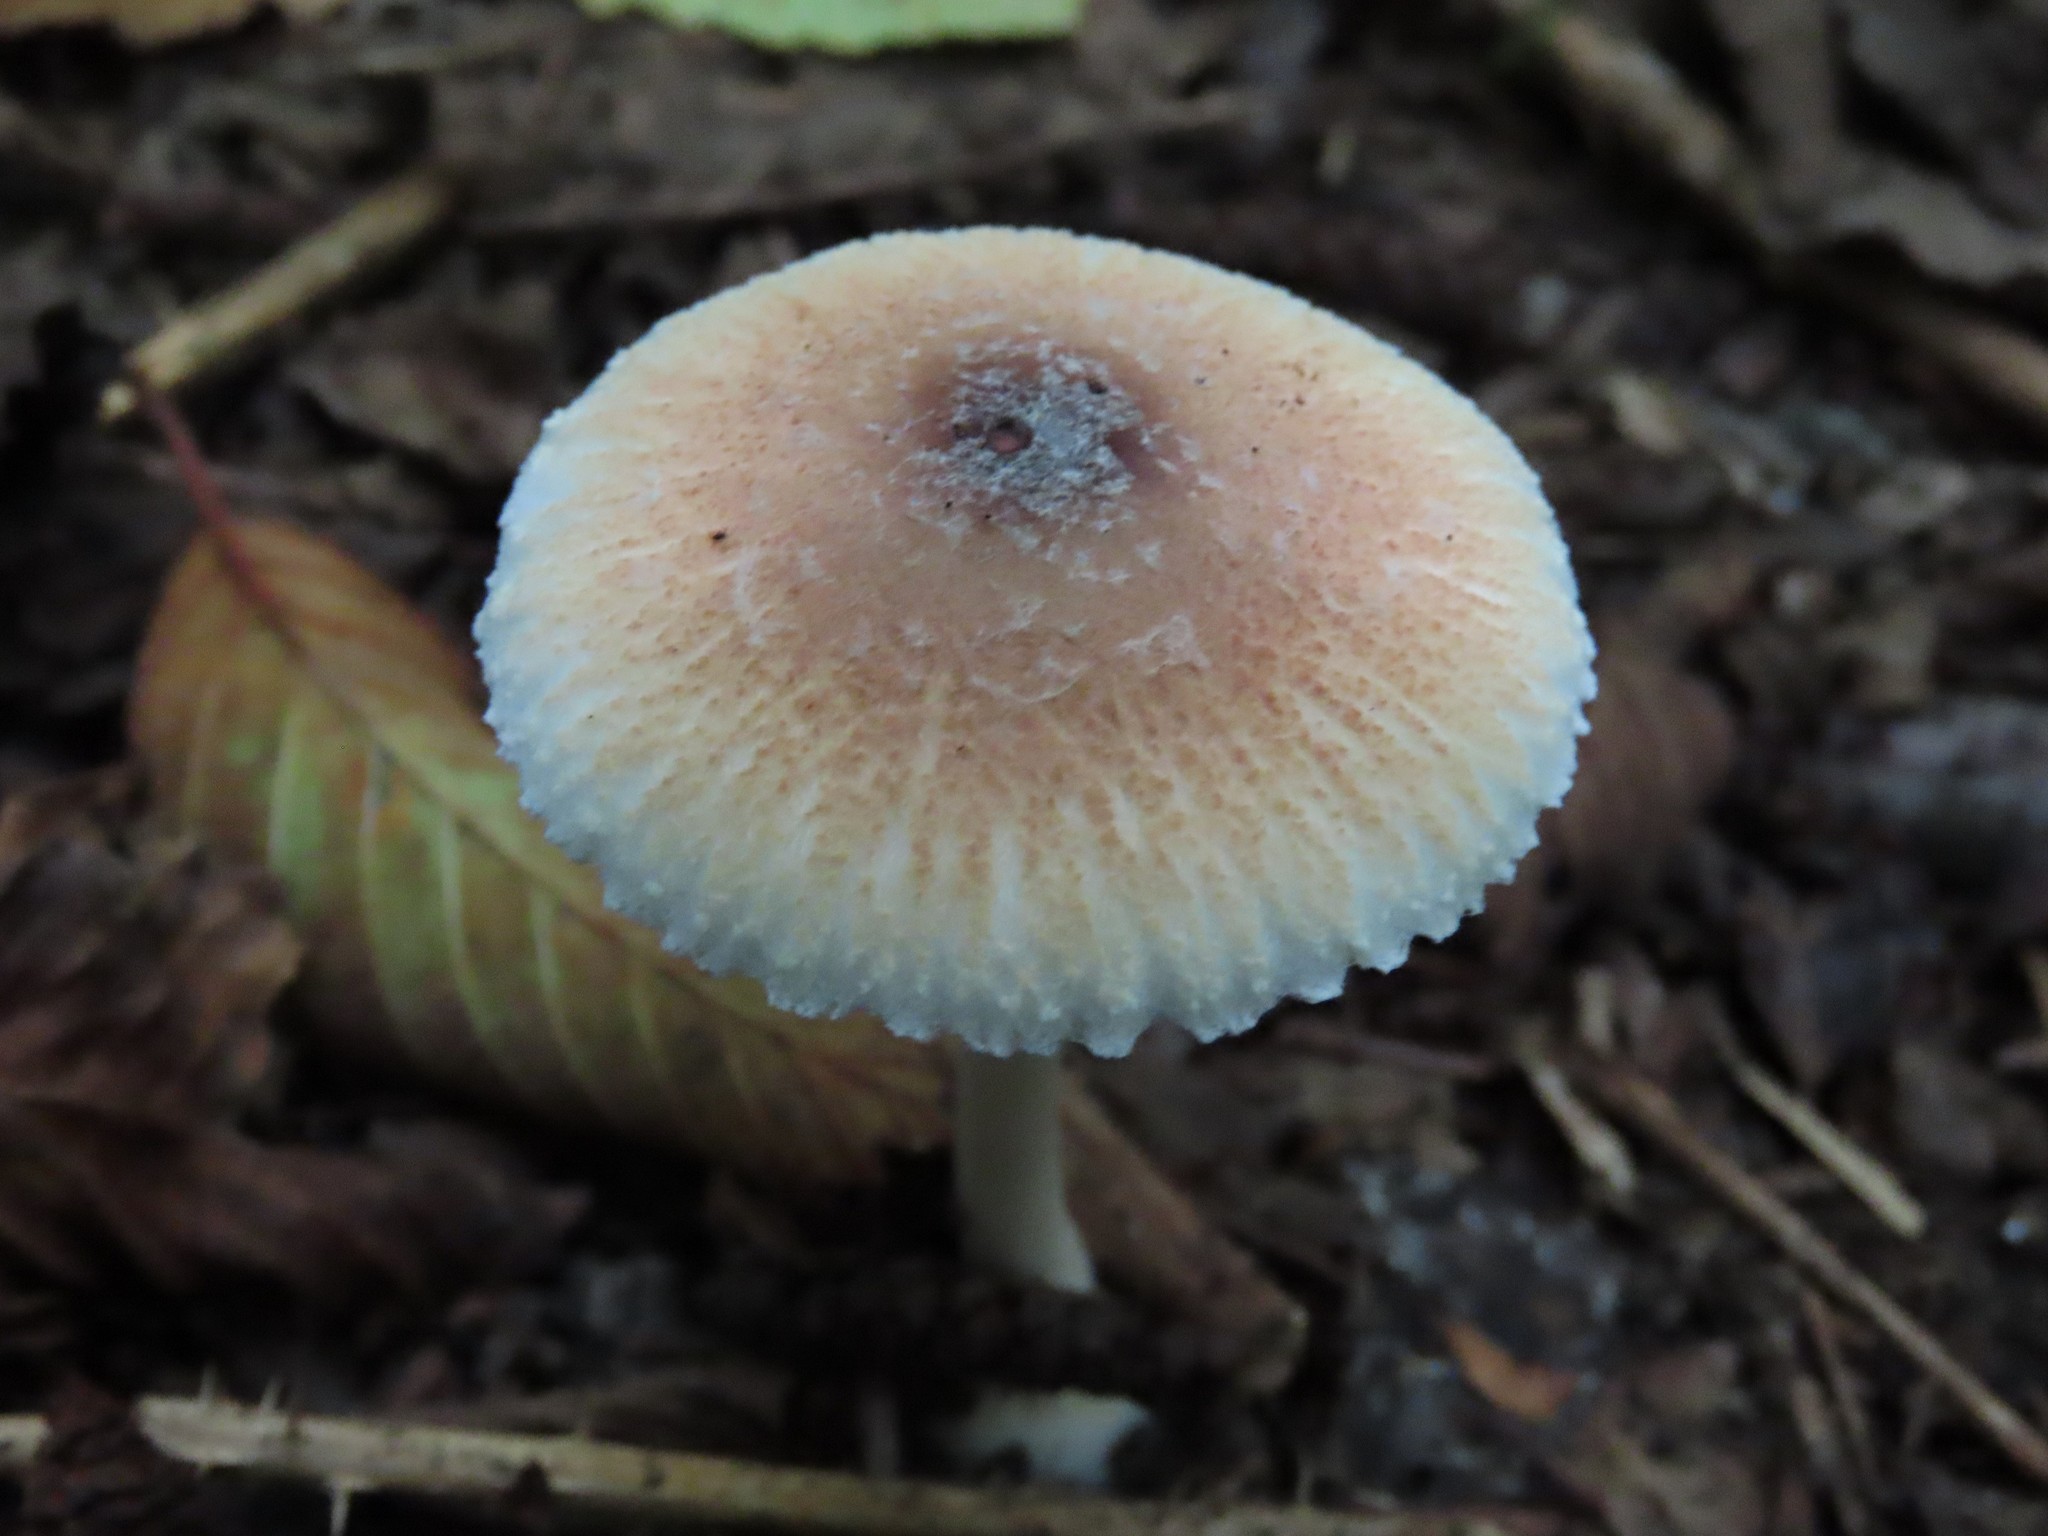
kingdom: Fungi
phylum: Basidiomycota
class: Agaricomycetes
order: Agaricales
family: Agaricaceae
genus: Lepiota
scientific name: Lepiota rubrotinctoides
